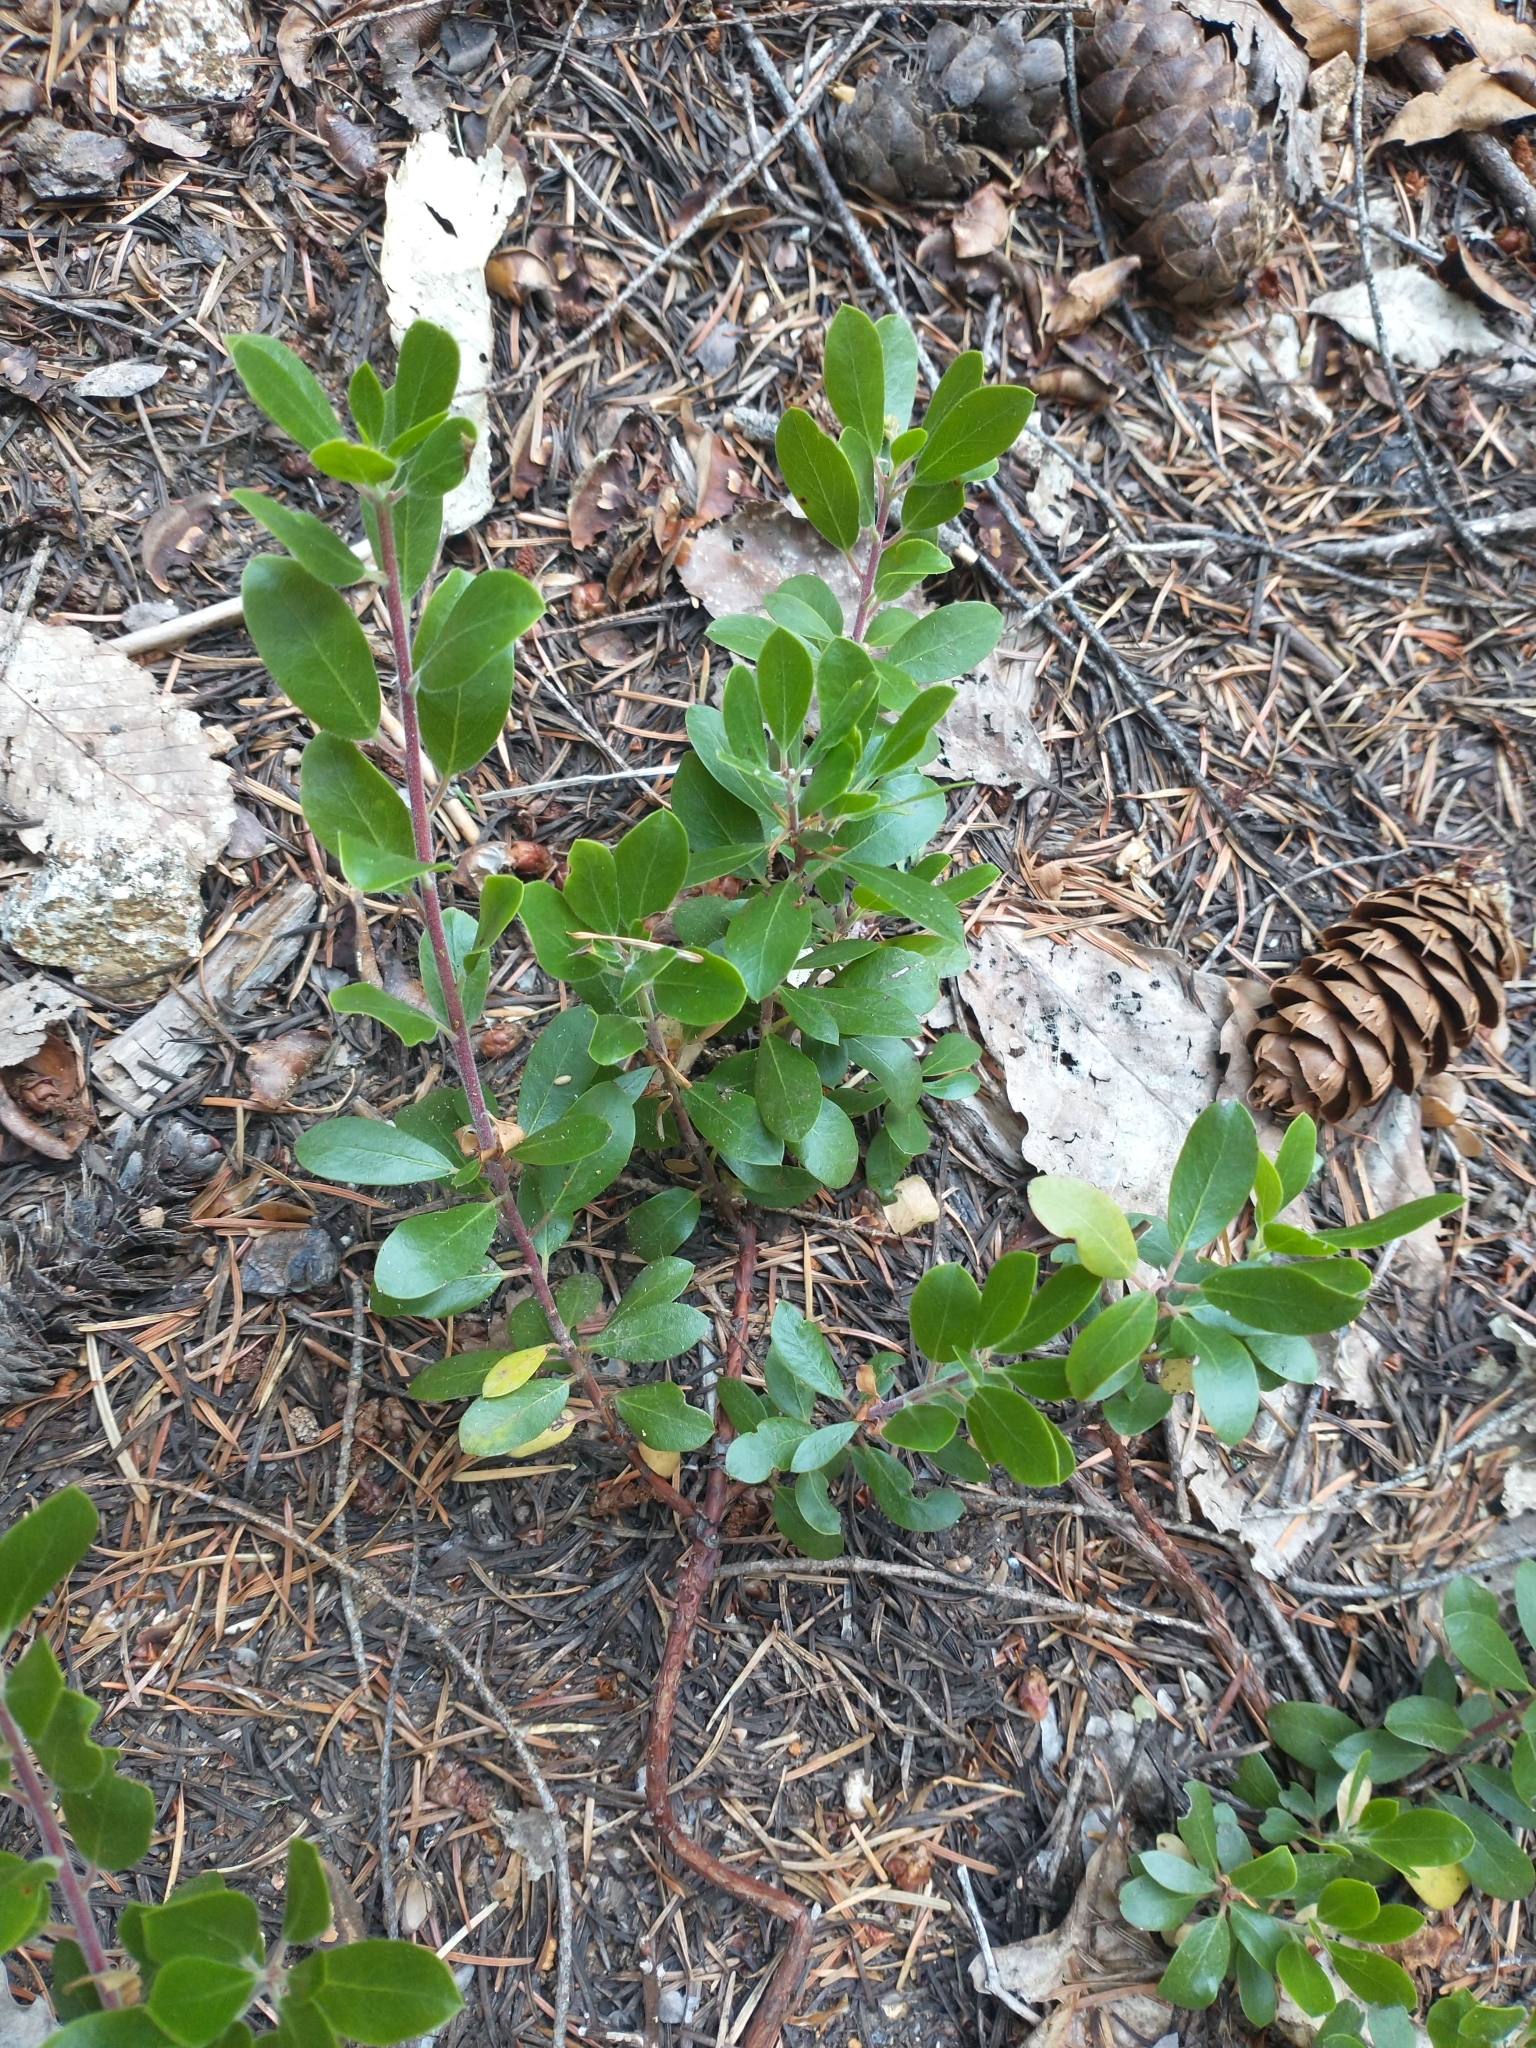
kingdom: Plantae
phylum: Tracheophyta
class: Magnoliopsida
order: Ericales
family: Ericaceae
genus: Arctostaphylos
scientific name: Arctostaphylos nevadensis
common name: Pinemat manzanita
